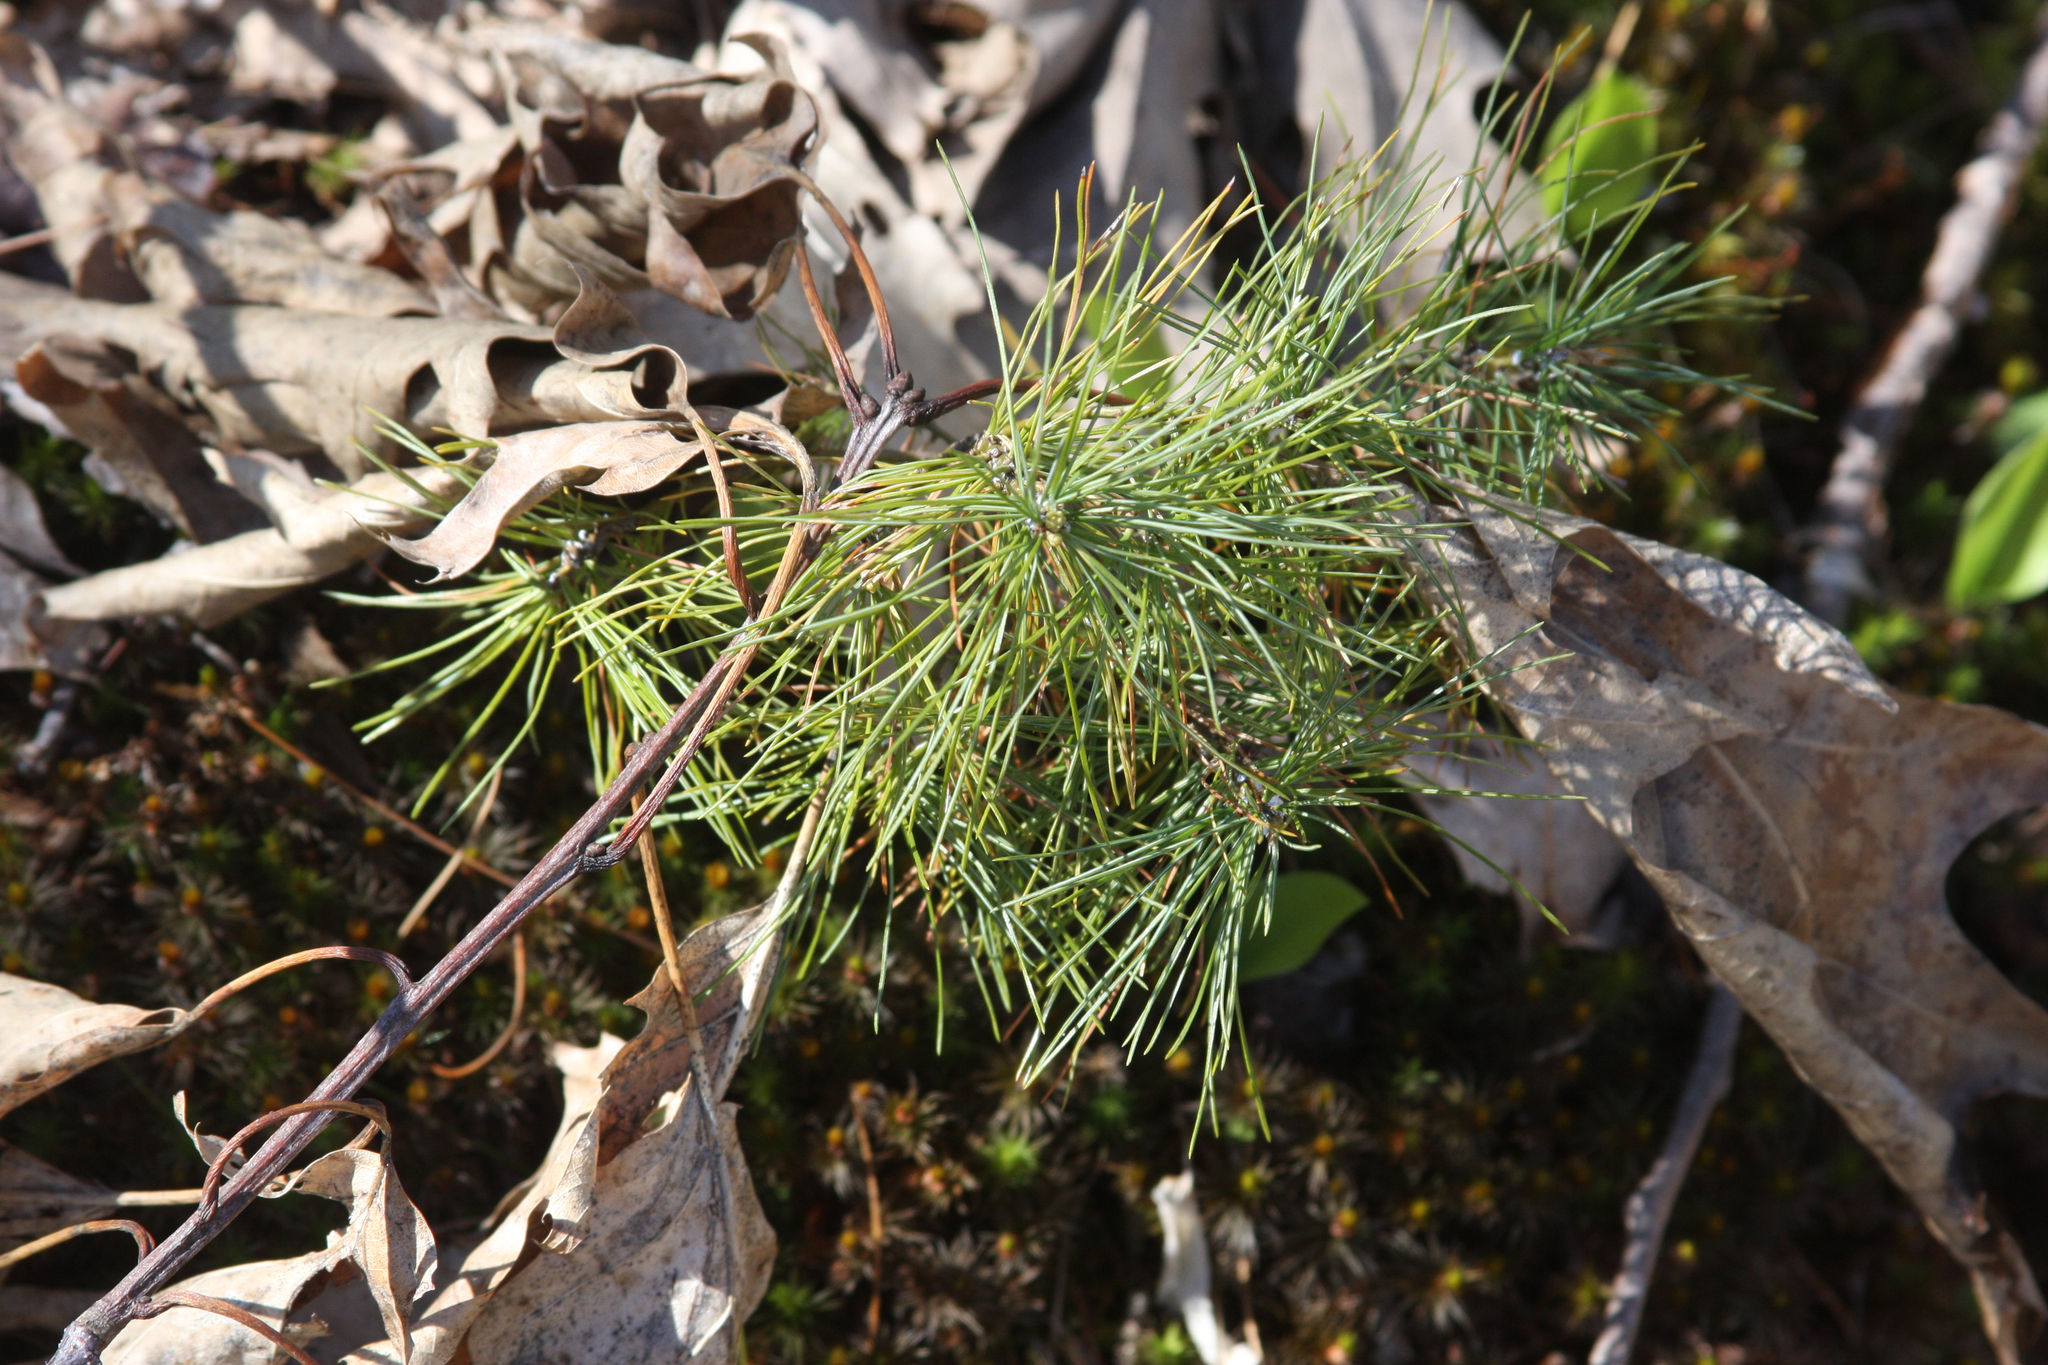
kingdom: Plantae
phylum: Tracheophyta
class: Pinopsida
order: Pinales
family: Pinaceae
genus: Pinus
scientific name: Pinus strobus
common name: Weymouth pine
